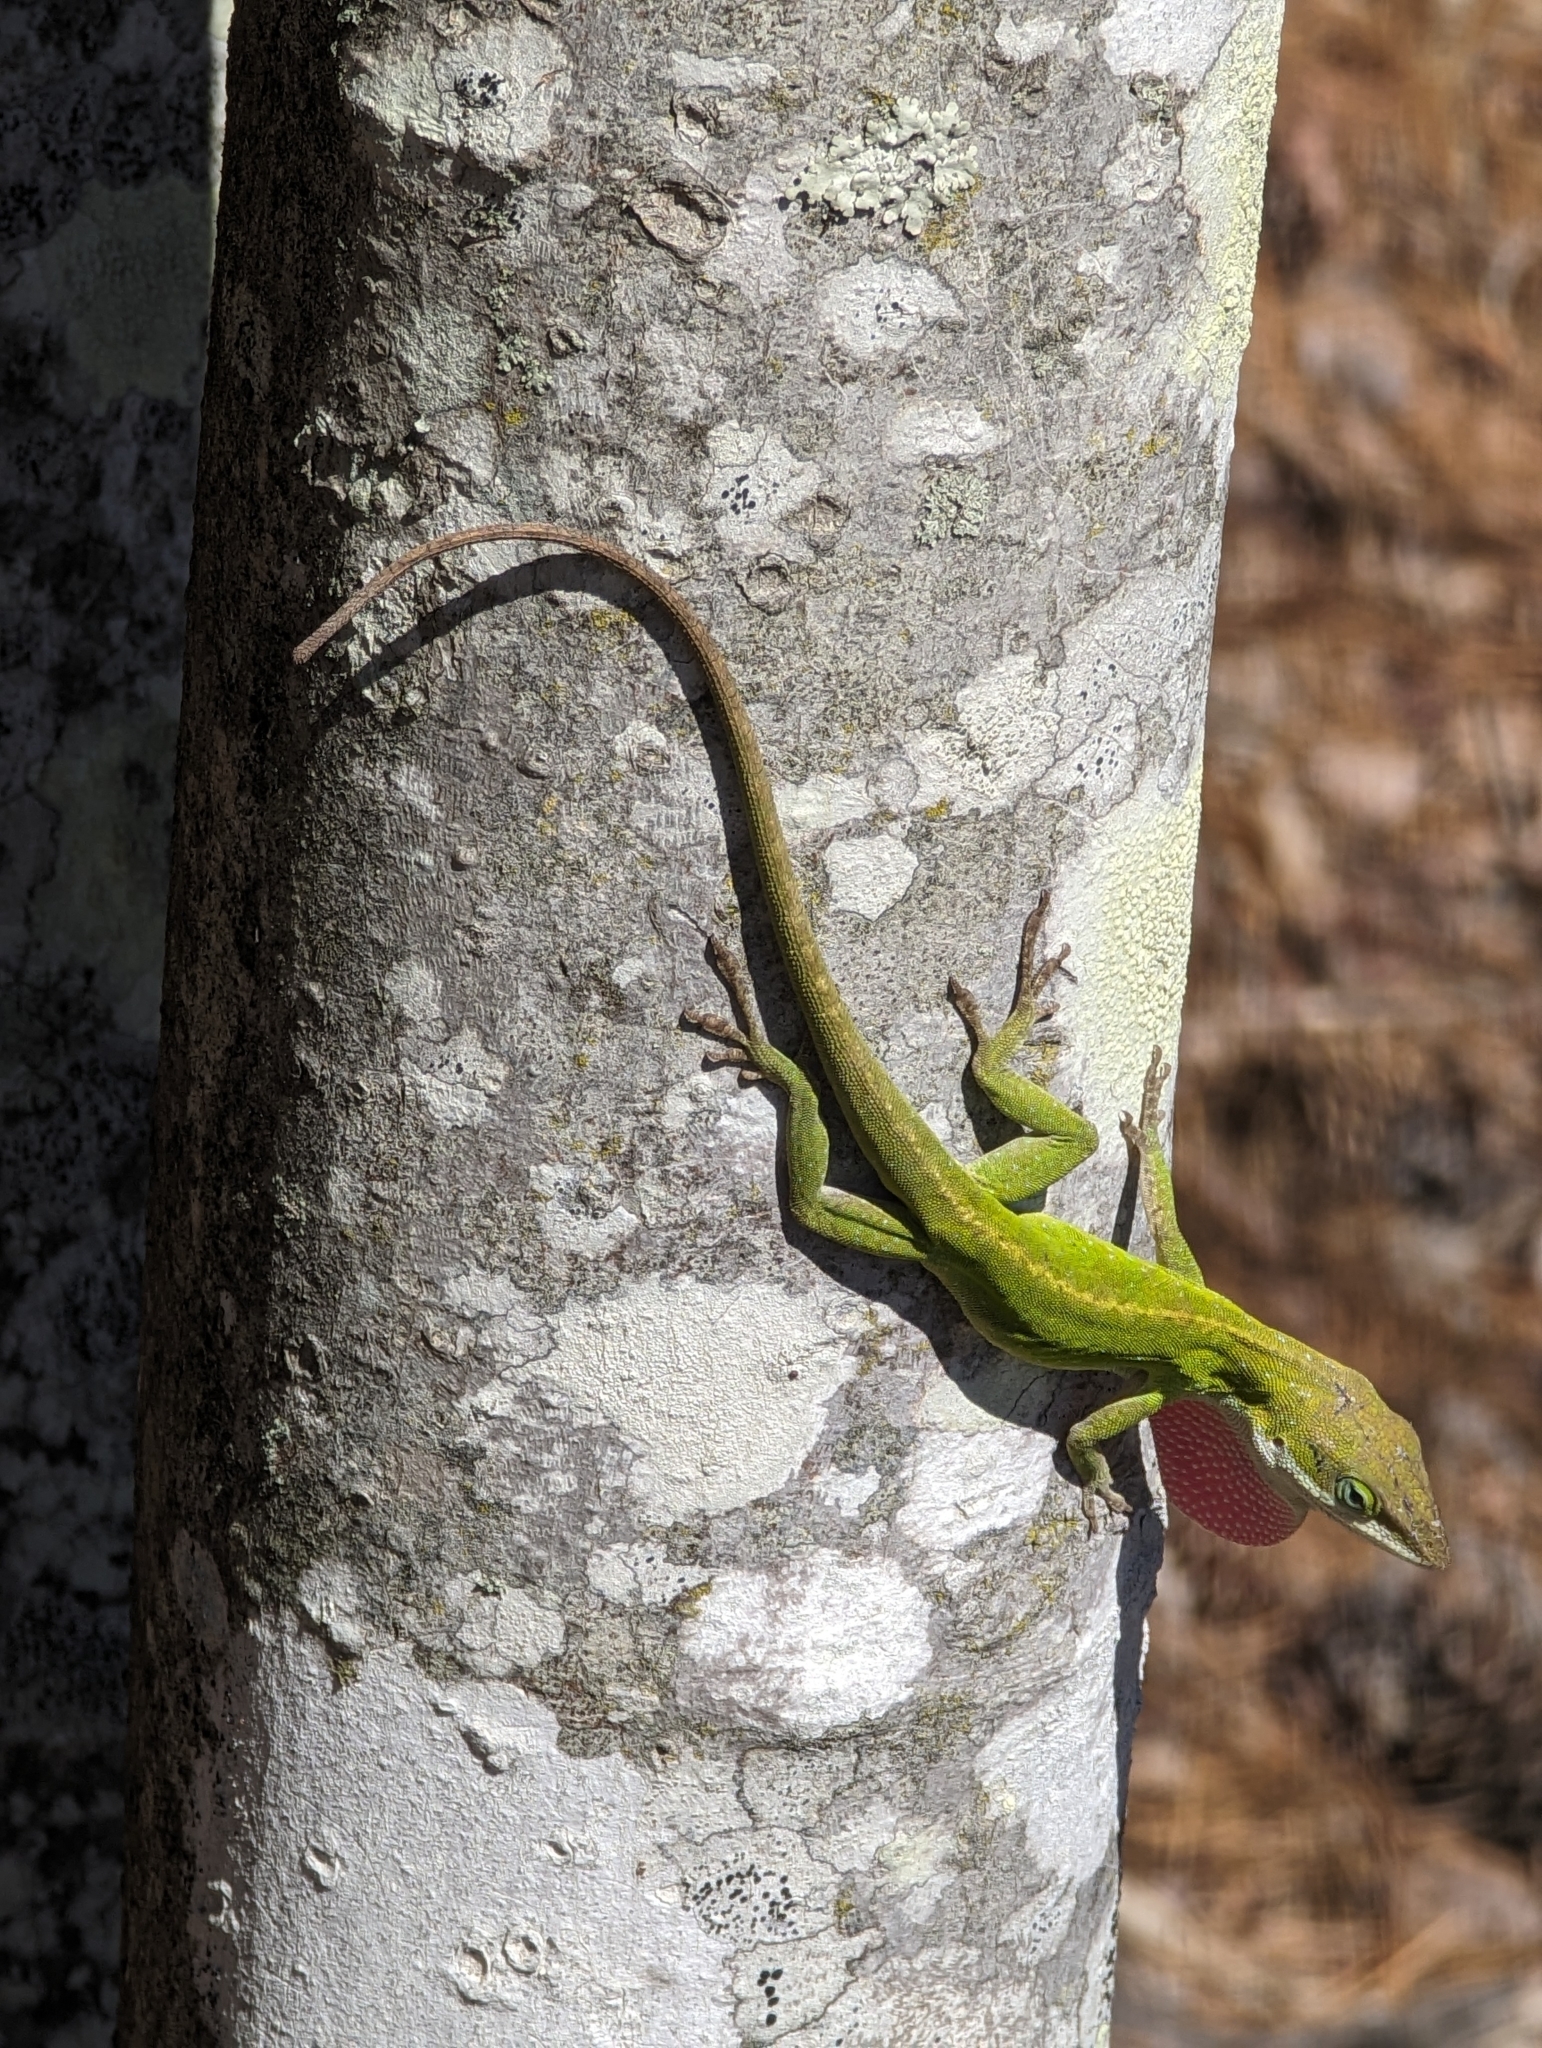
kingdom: Animalia
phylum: Chordata
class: Squamata
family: Dactyloidae
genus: Anolis
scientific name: Anolis carolinensis
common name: Green anole
